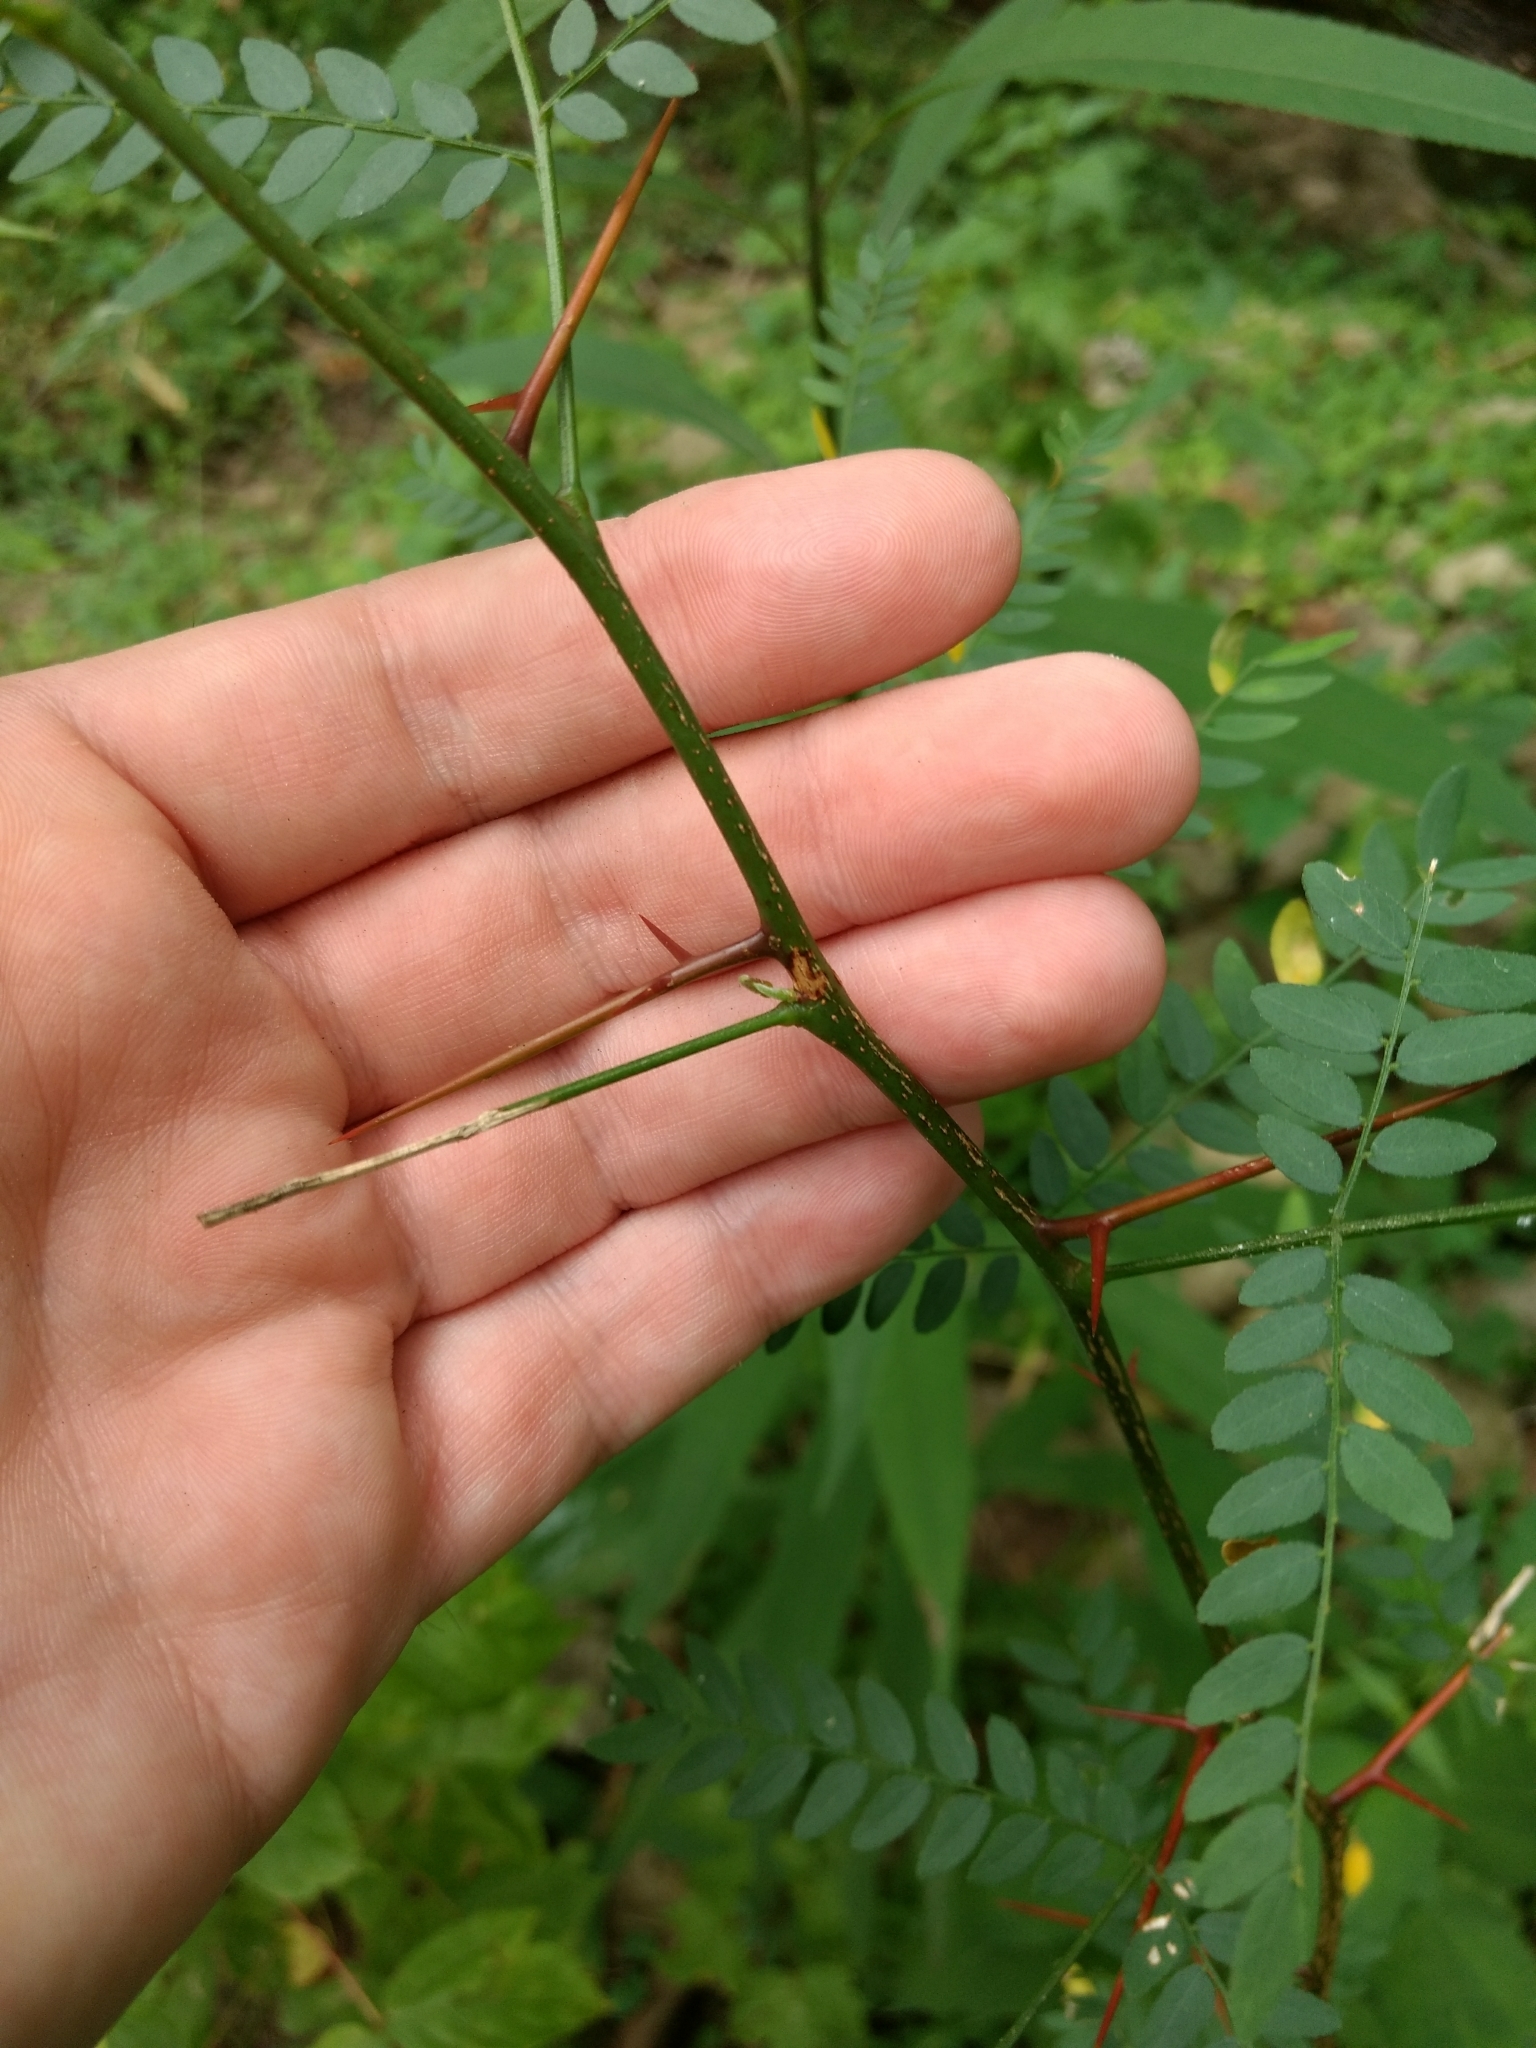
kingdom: Plantae
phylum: Tracheophyta
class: Magnoliopsida
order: Fabales
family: Fabaceae
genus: Gleditsia
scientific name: Gleditsia triacanthos
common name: Common honeylocust
